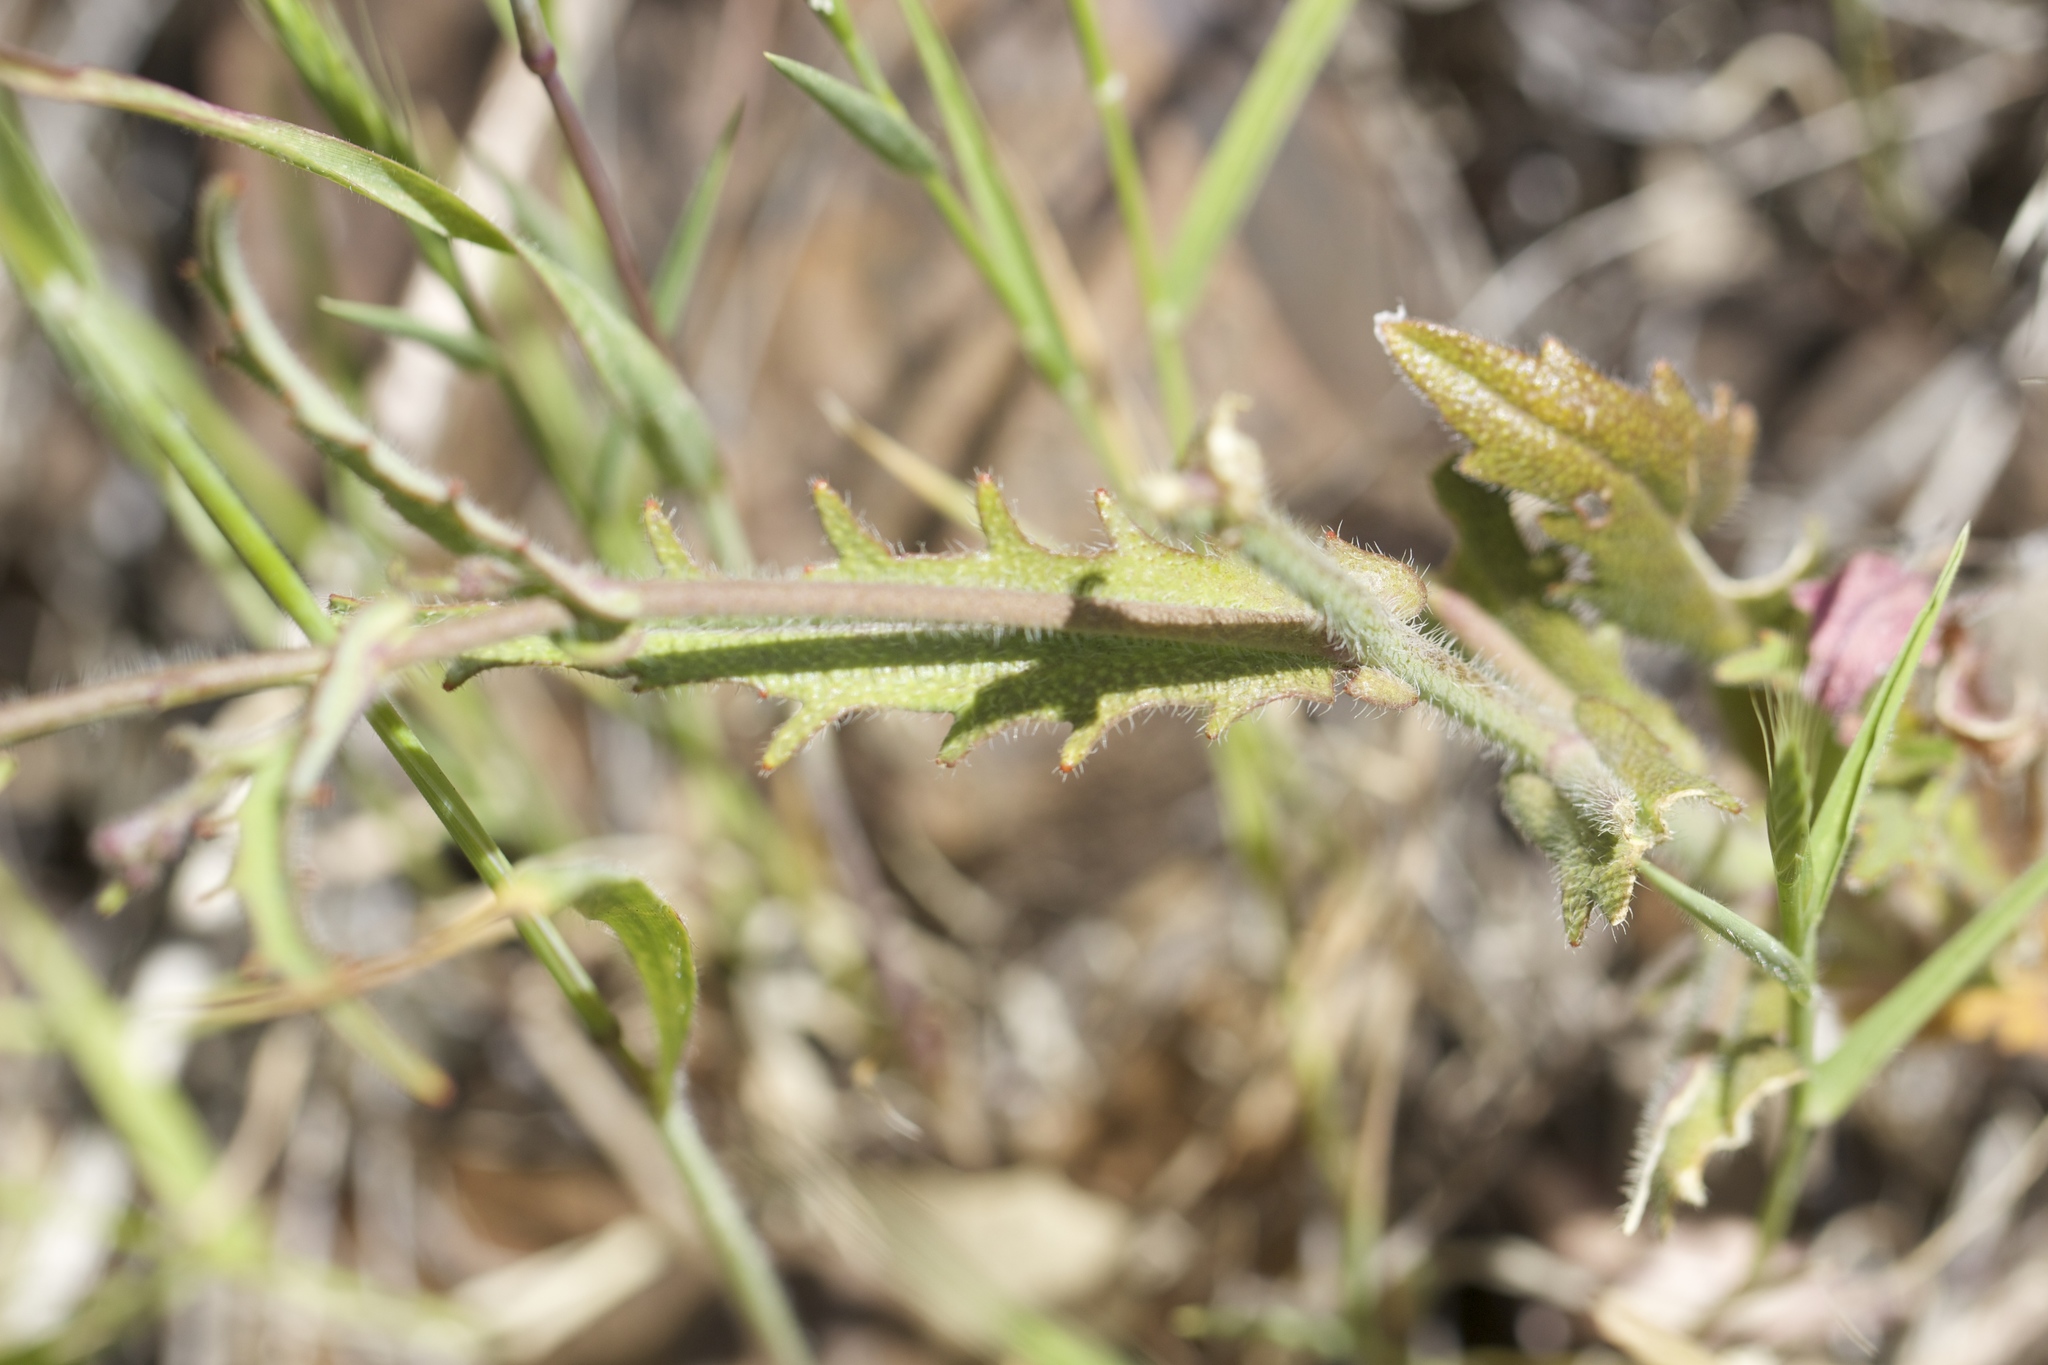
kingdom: Plantae
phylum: Tracheophyta
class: Magnoliopsida
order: Brassicales
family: Brassicaceae
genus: Streptanthus
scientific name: Streptanthus glandulosus
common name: Jewel-flower
